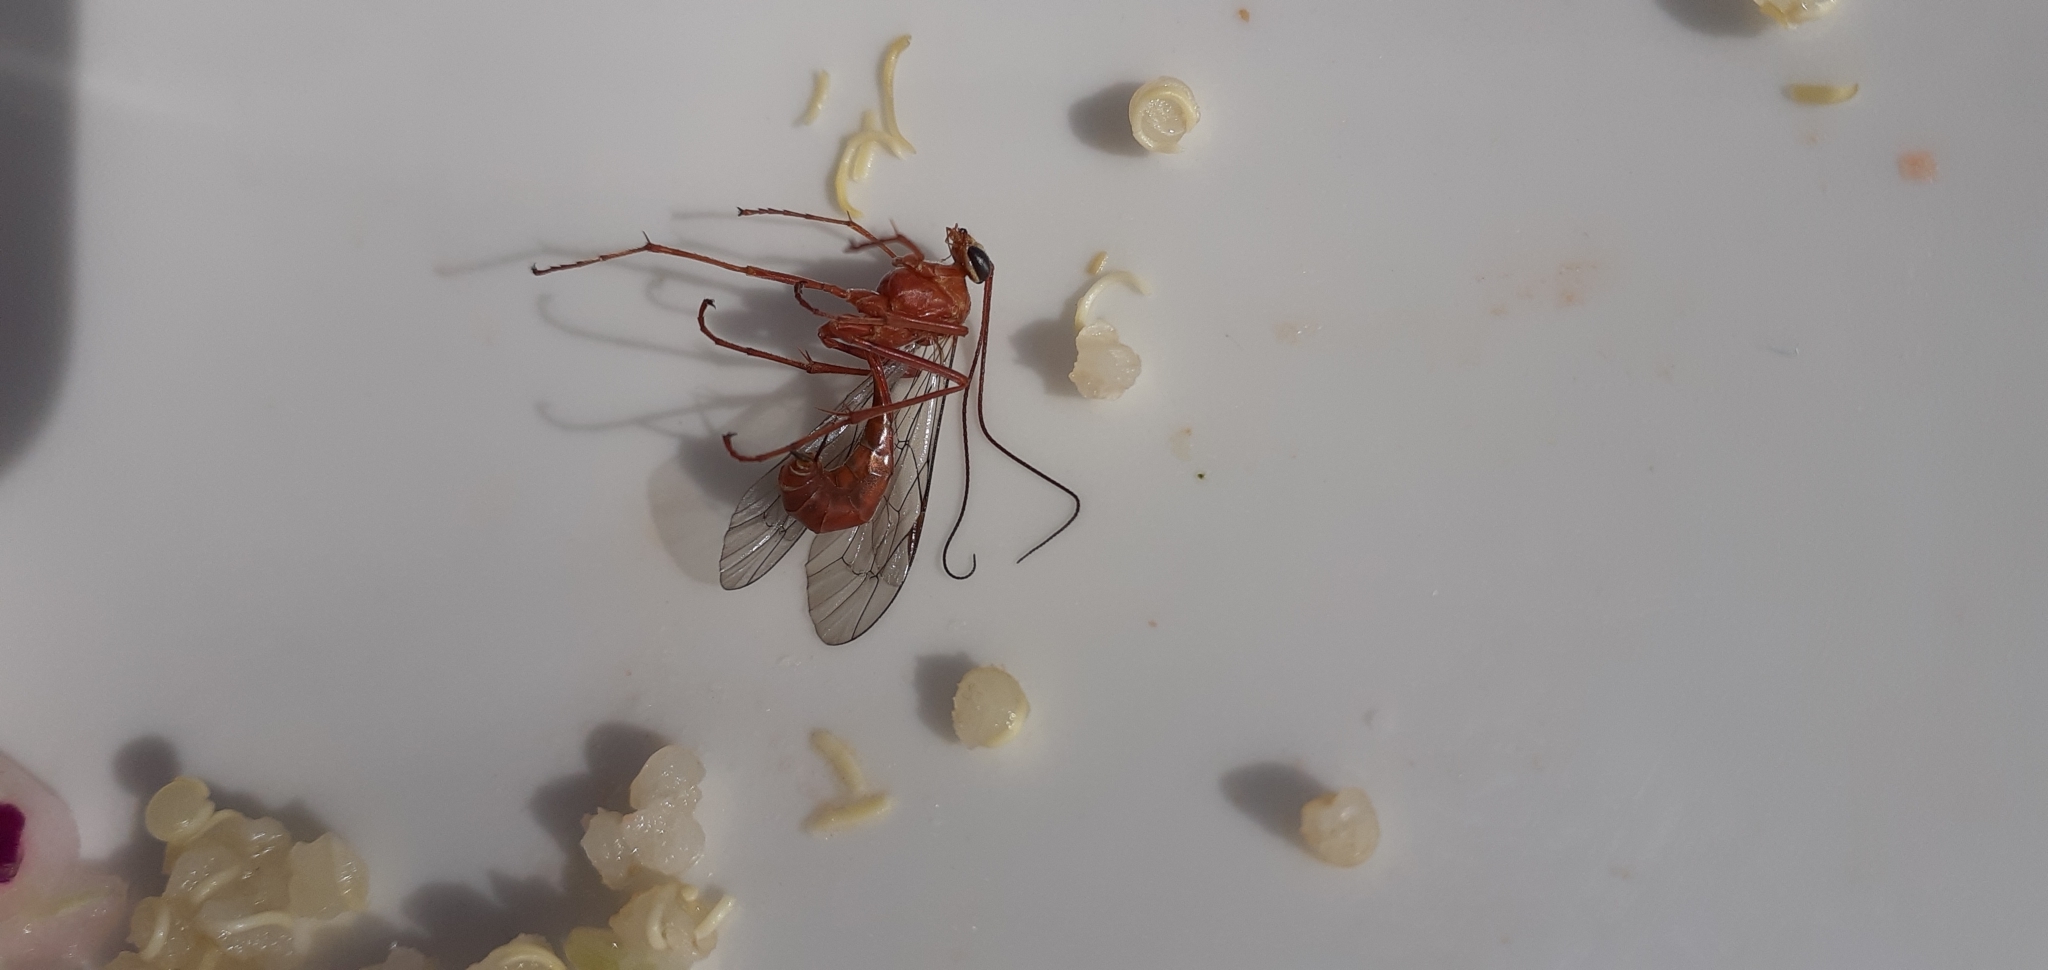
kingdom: Animalia
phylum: Arthropoda
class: Insecta
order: Hymenoptera
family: Ichneumonidae
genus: Netelia
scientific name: Netelia producta
